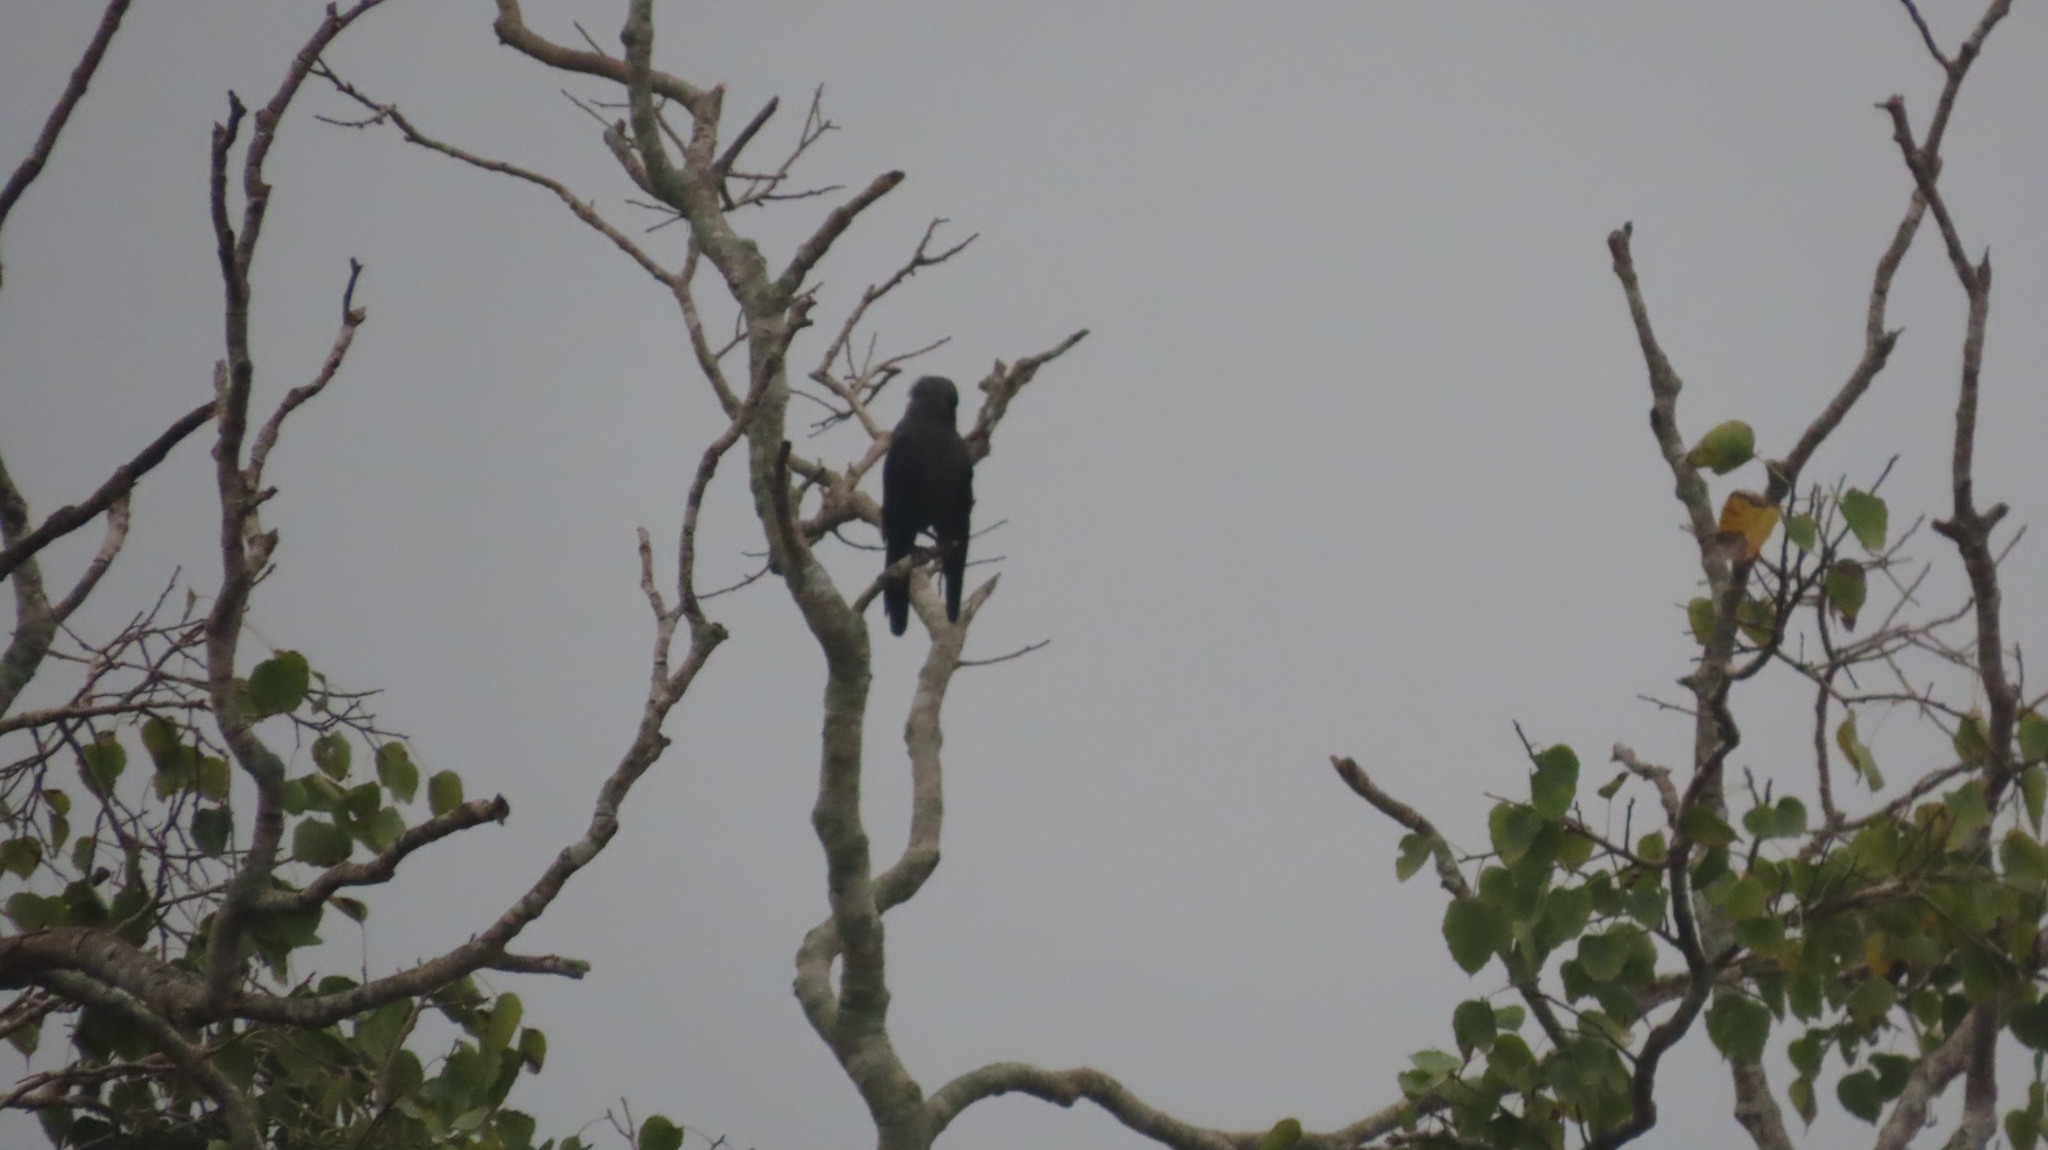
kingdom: Animalia
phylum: Chordata
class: Aves
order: Passeriformes
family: Corvidae
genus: Corvus
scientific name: Corvus splendens
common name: House crow
